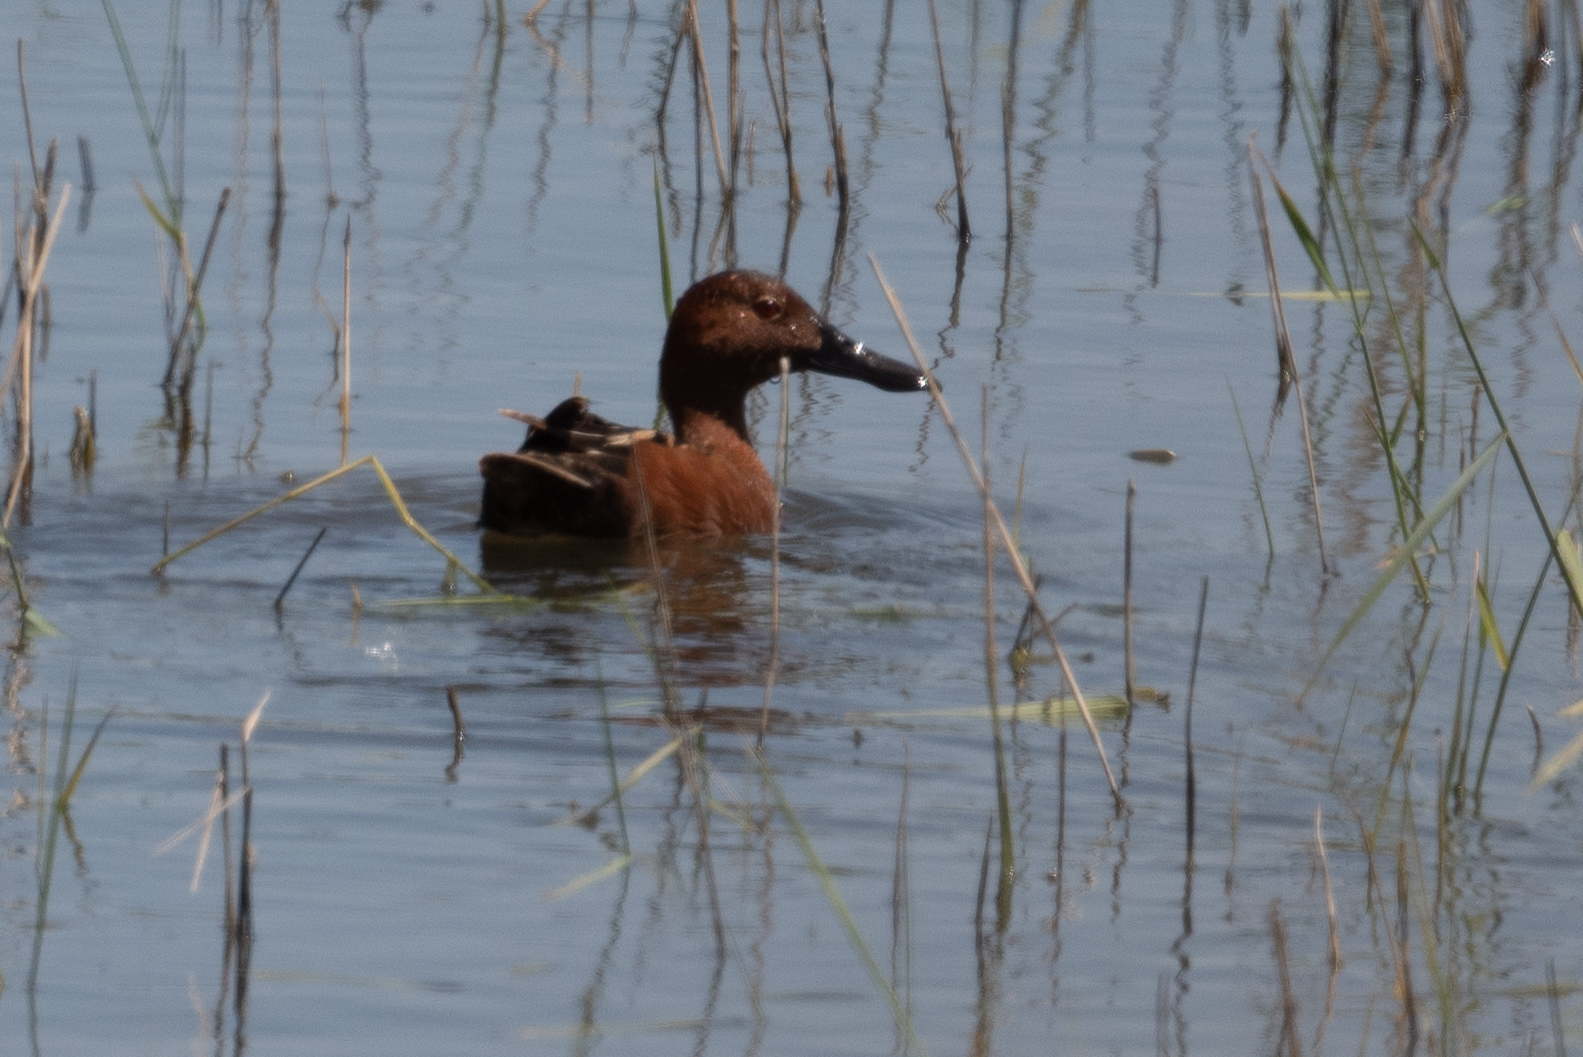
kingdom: Animalia
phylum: Chordata
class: Aves
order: Anseriformes
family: Anatidae
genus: Spatula
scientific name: Spatula cyanoptera
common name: Cinnamon teal
